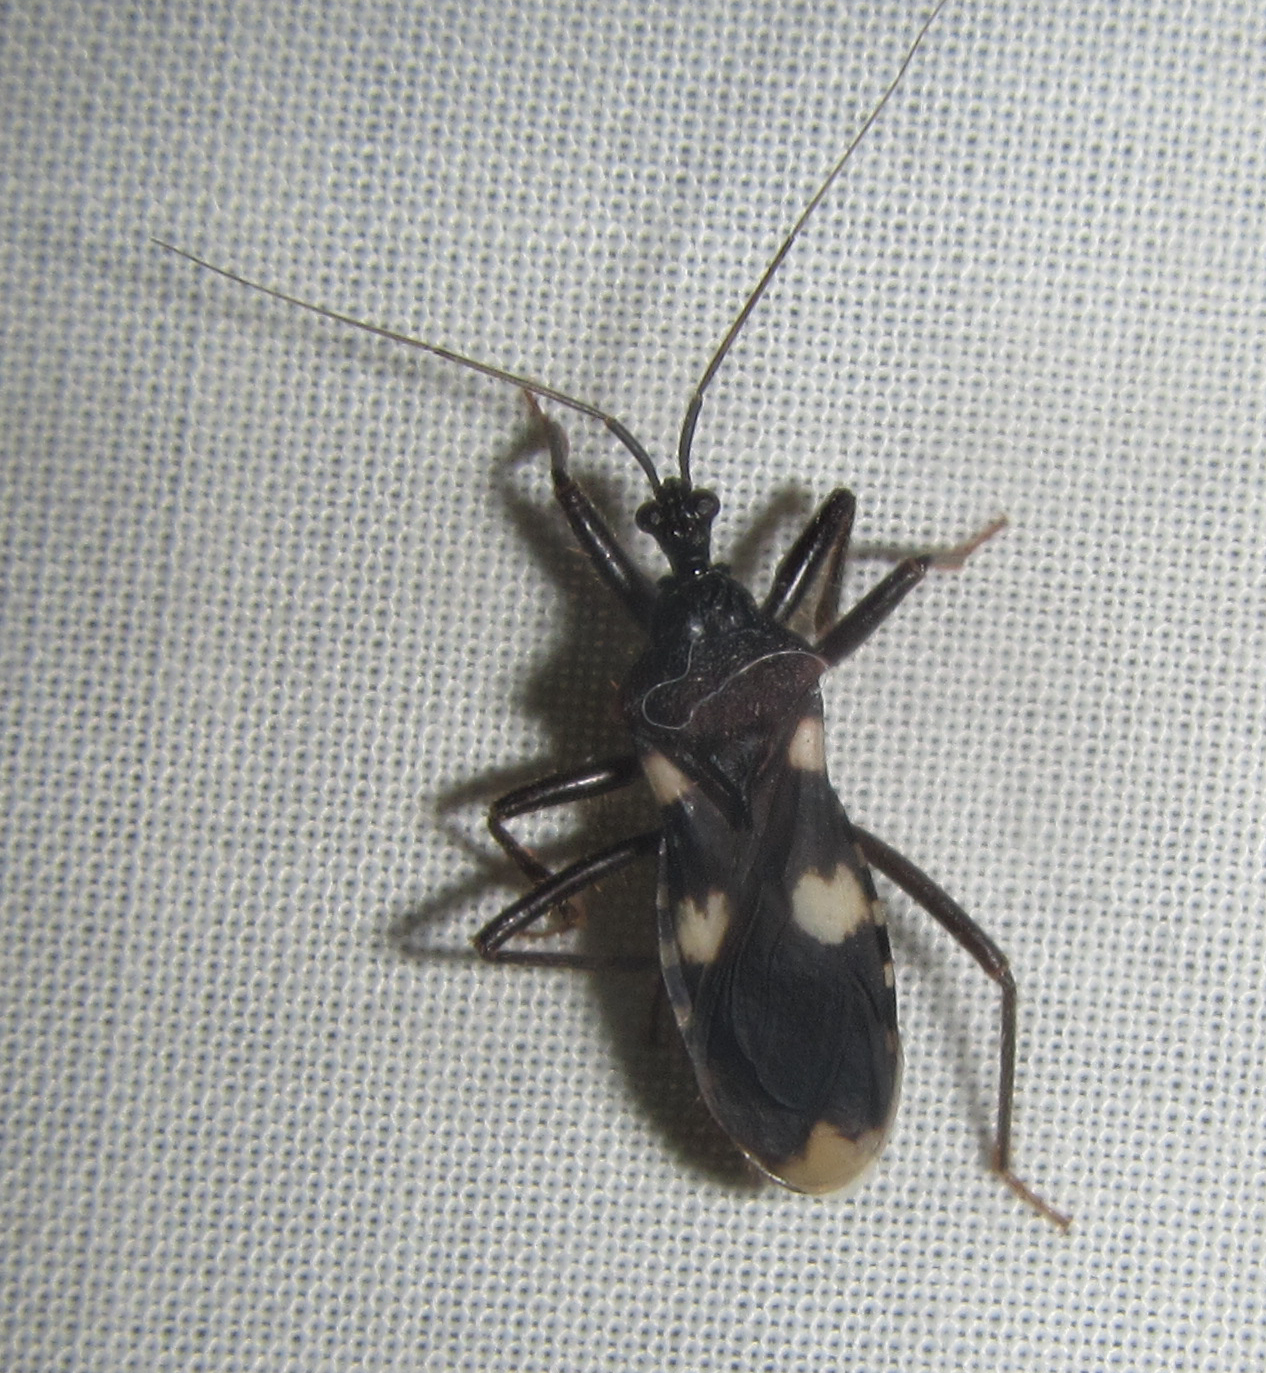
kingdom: Animalia
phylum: Arthropoda
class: Insecta
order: Hemiptera
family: Reduviidae
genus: Acanthaspis
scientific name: Acanthaspis obscura
